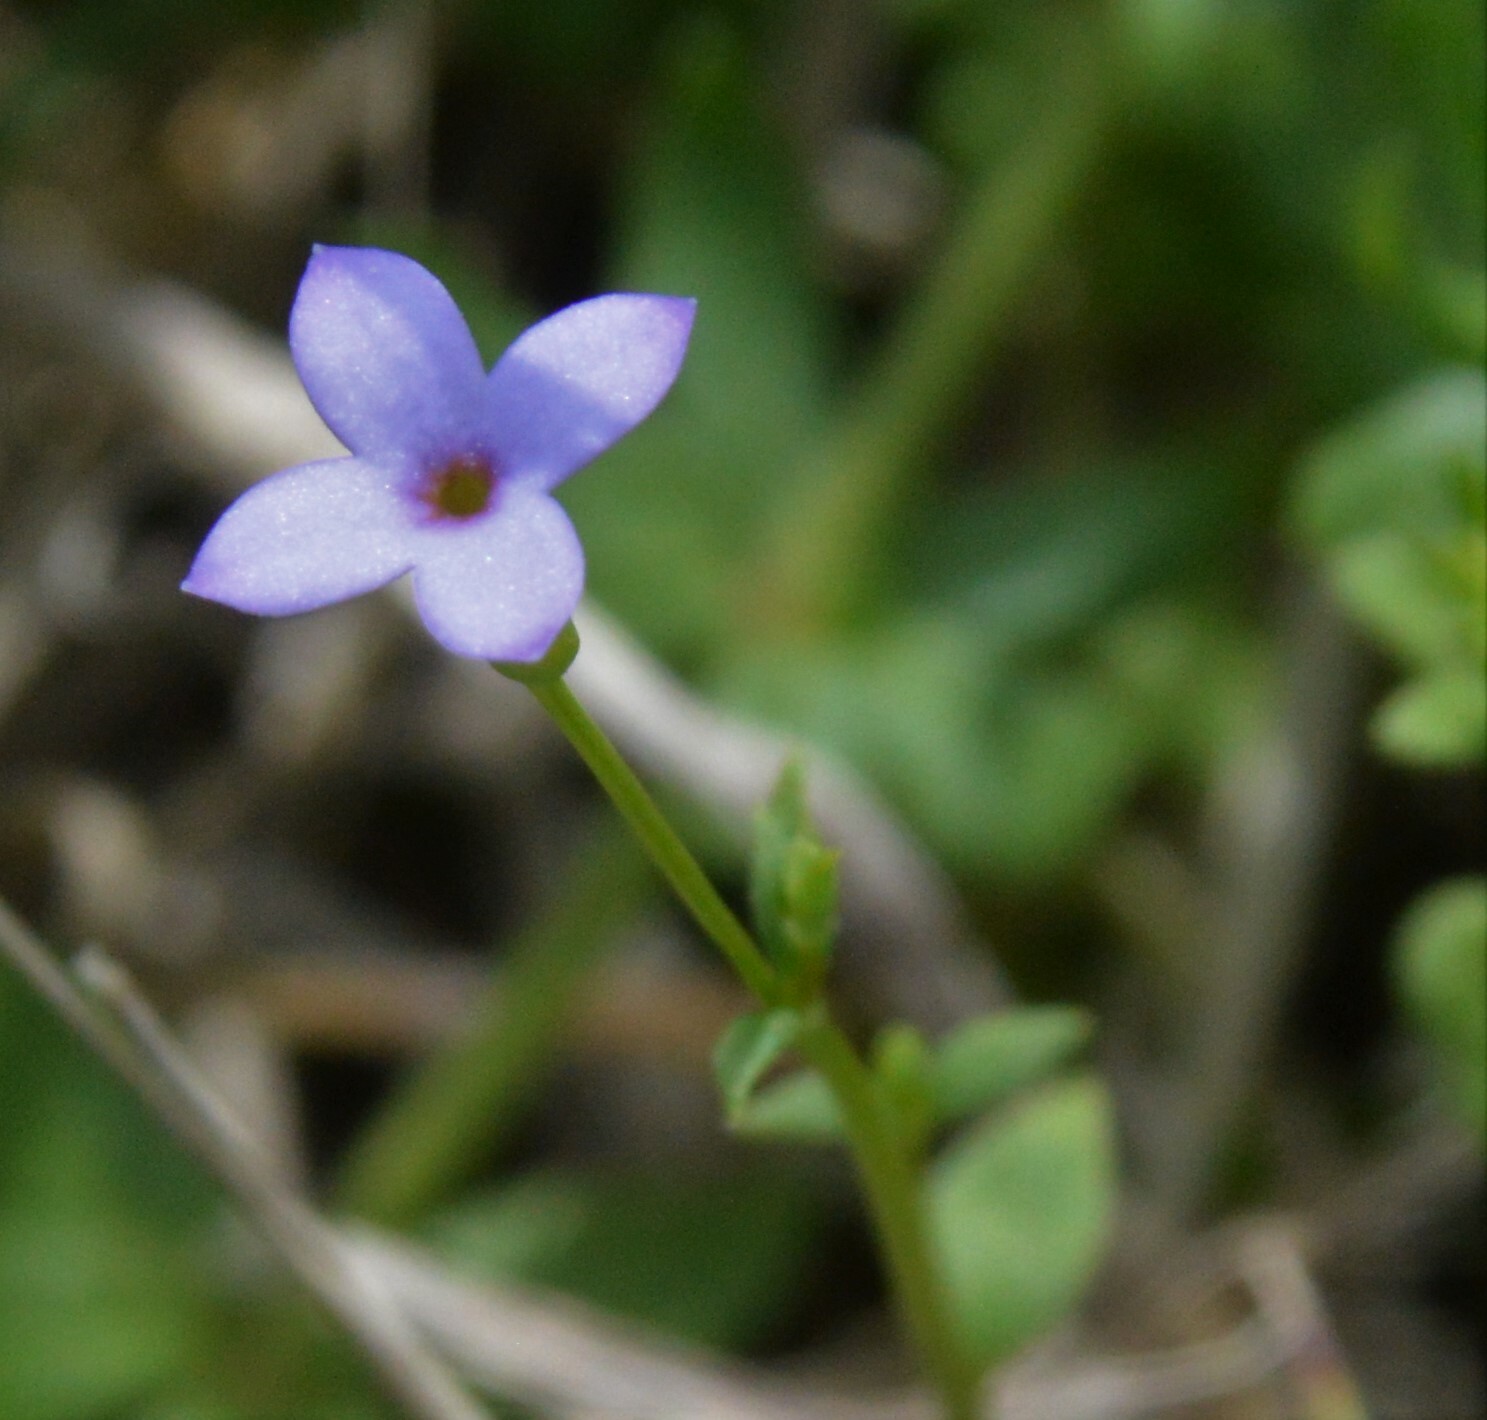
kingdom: Plantae
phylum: Tracheophyta
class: Magnoliopsida
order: Gentianales
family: Rubiaceae
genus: Houstonia
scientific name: Houstonia pusilla
